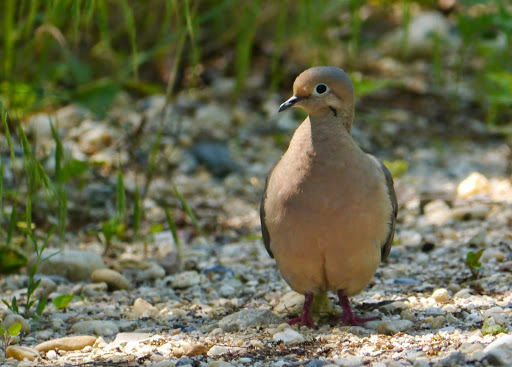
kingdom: Animalia
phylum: Chordata
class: Aves
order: Columbiformes
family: Columbidae
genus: Zenaida
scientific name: Zenaida macroura
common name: Mourning dove
